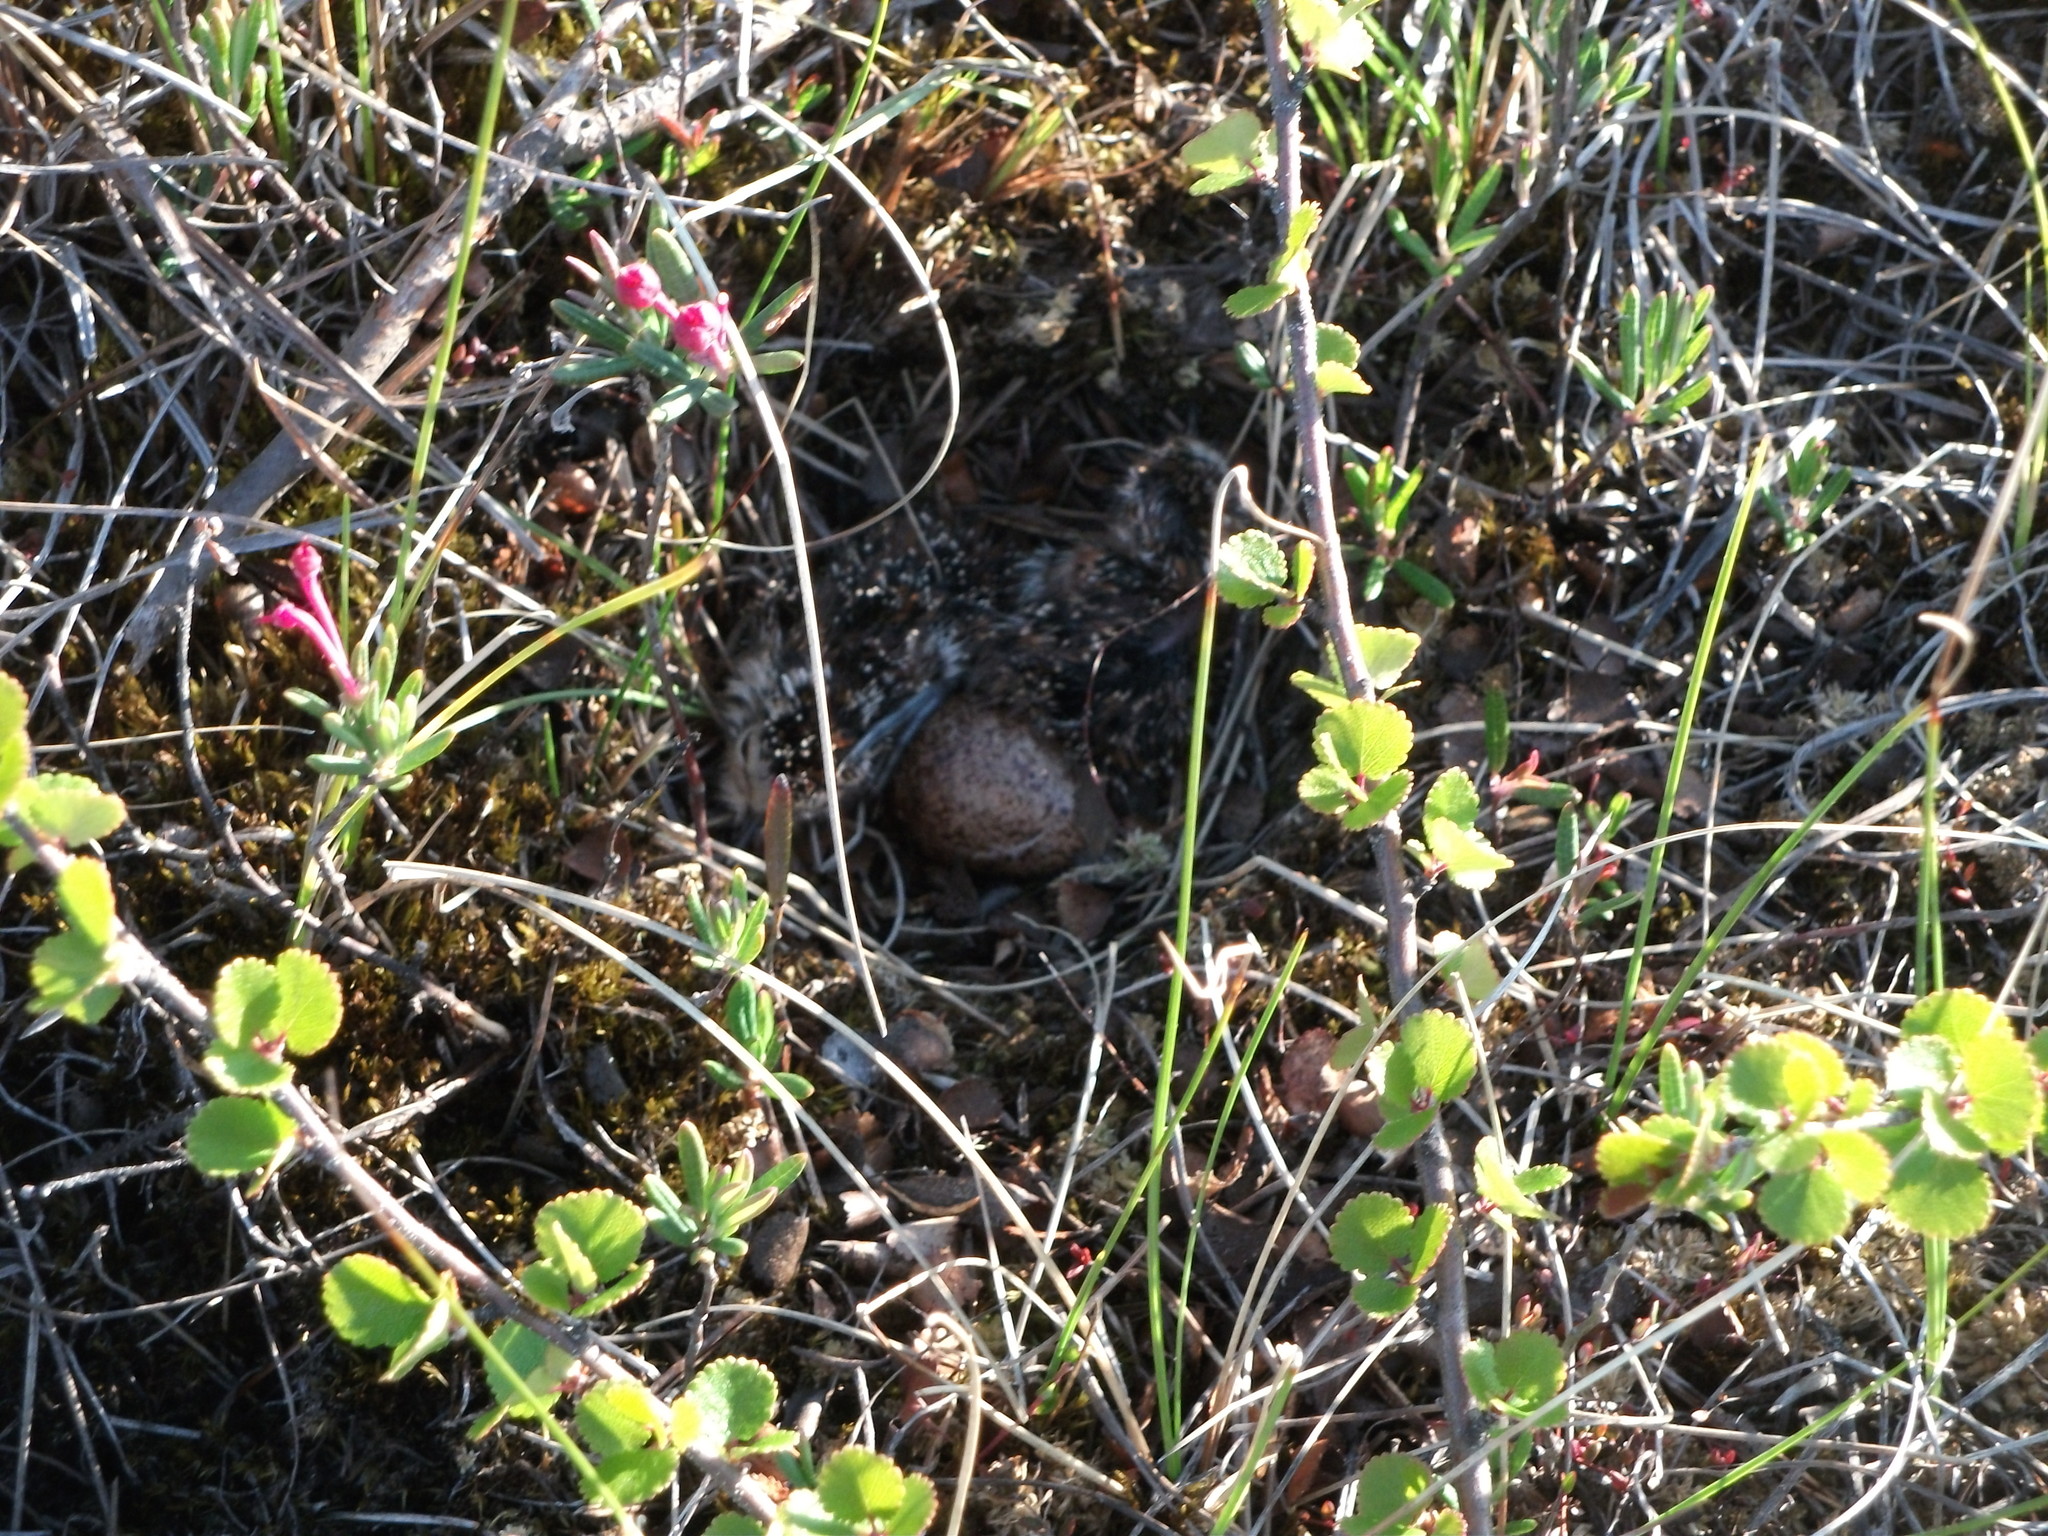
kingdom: Animalia
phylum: Chordata
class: Aves
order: Charadriiformes
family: Scolopacidae
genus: Calidris
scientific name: Calidris minutilla
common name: Least sandpiper
